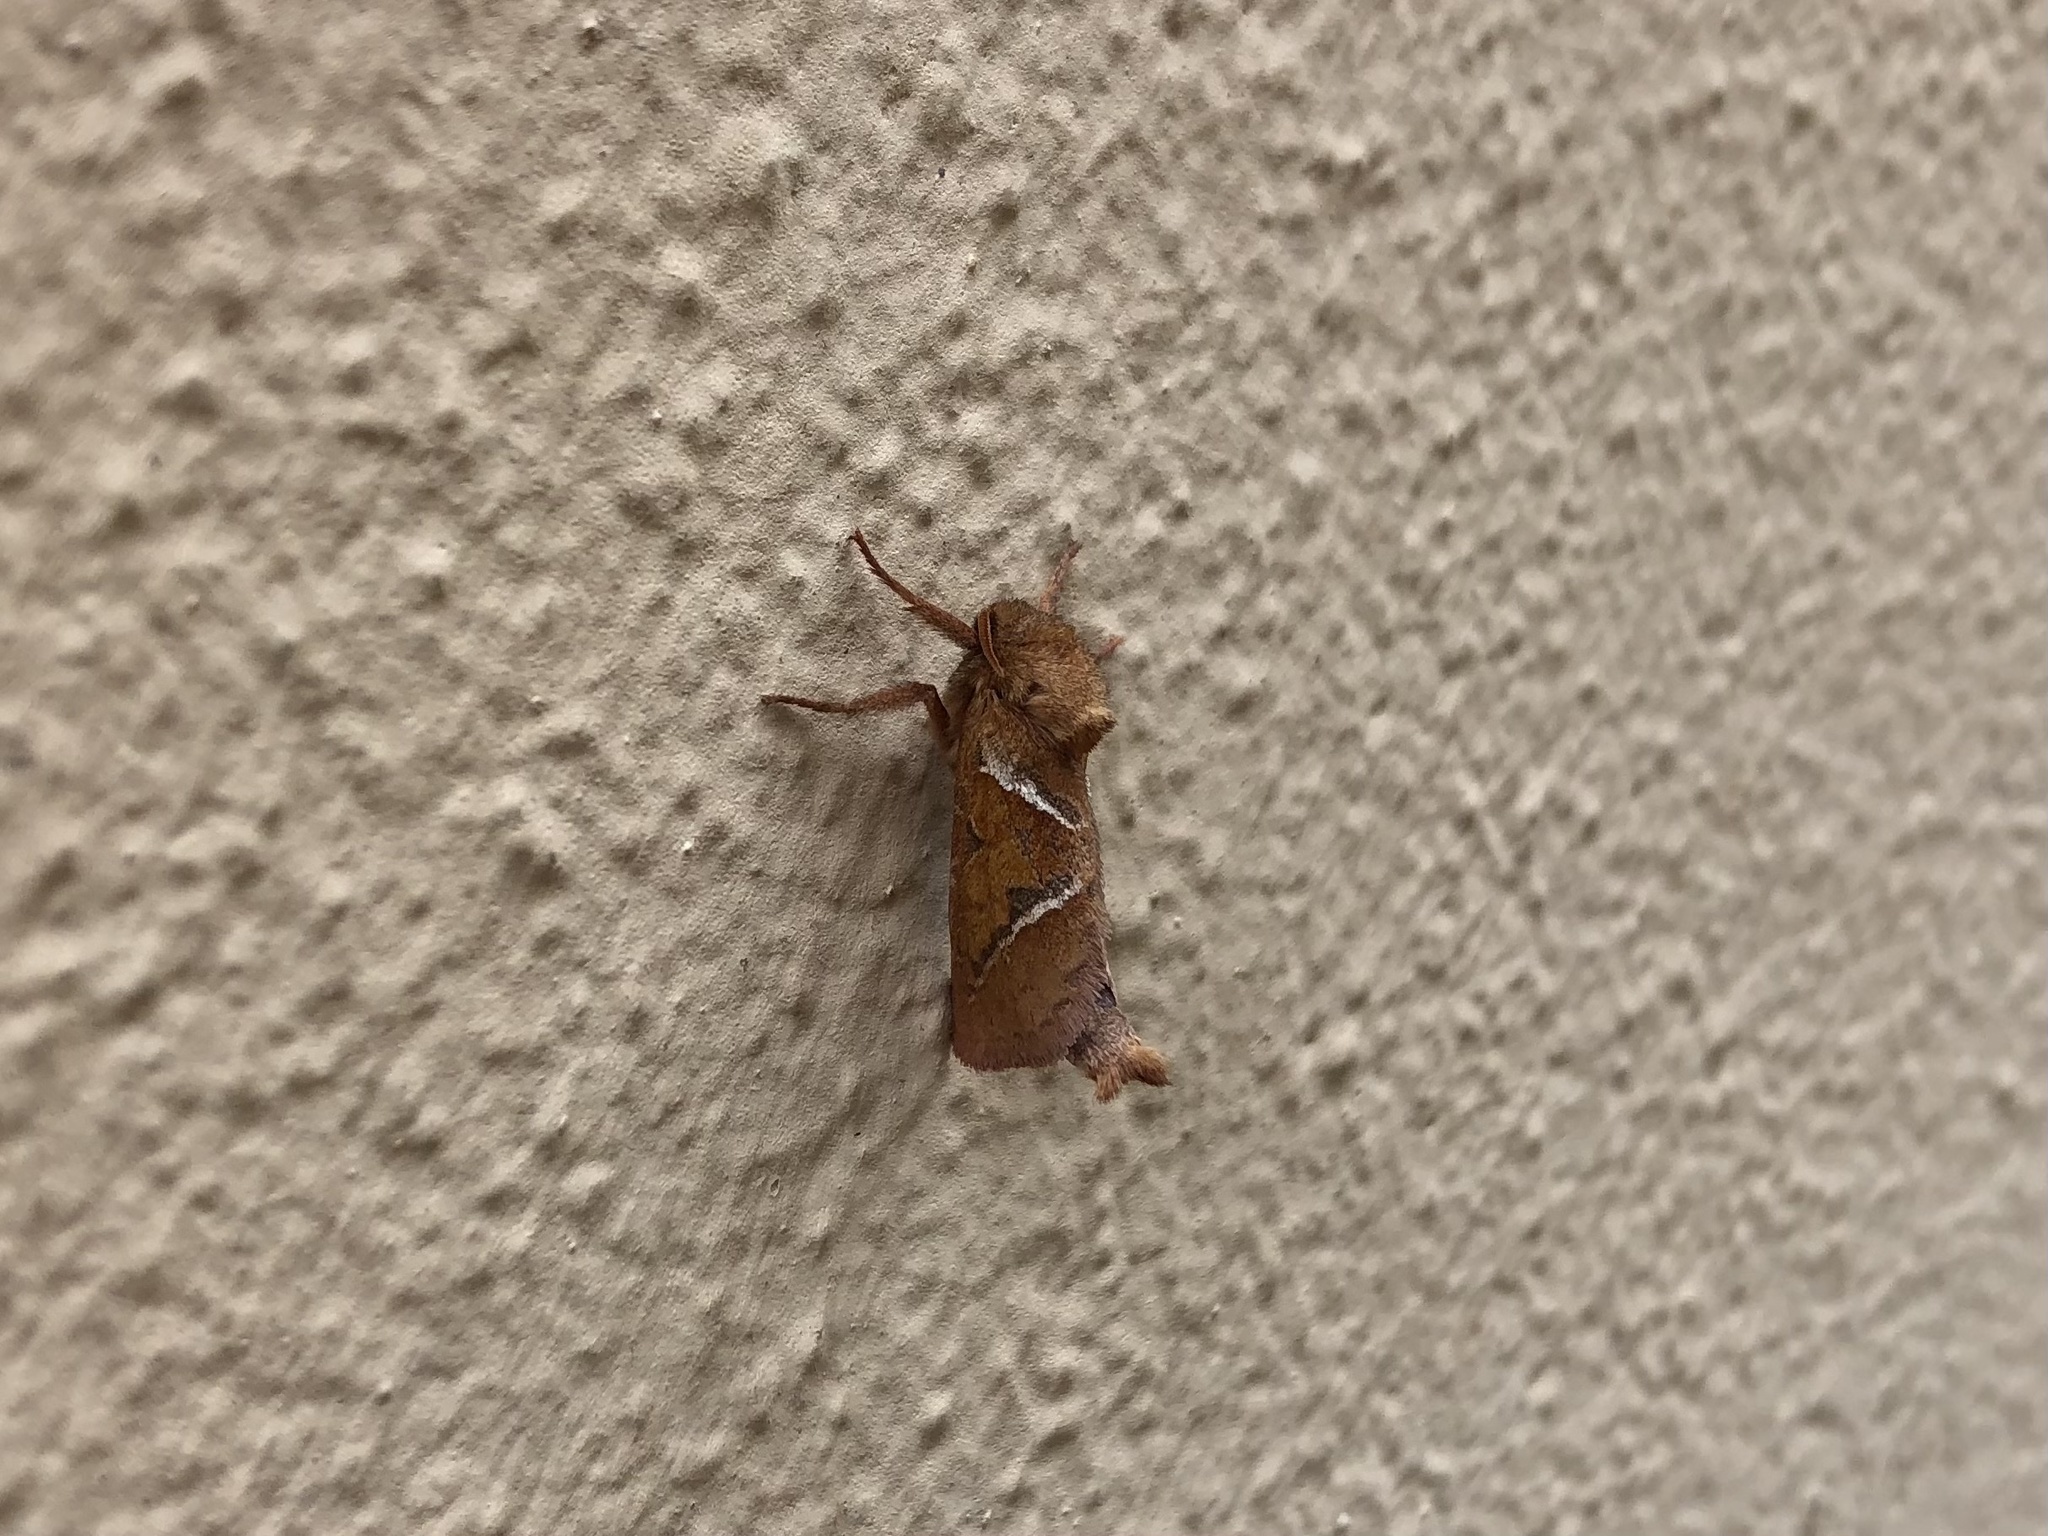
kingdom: Animalia
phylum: Arthropoda
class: Insecta
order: Lepidoptera
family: Hepialidae
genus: Triodia
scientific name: Triodia sylvina
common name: Orange swift
